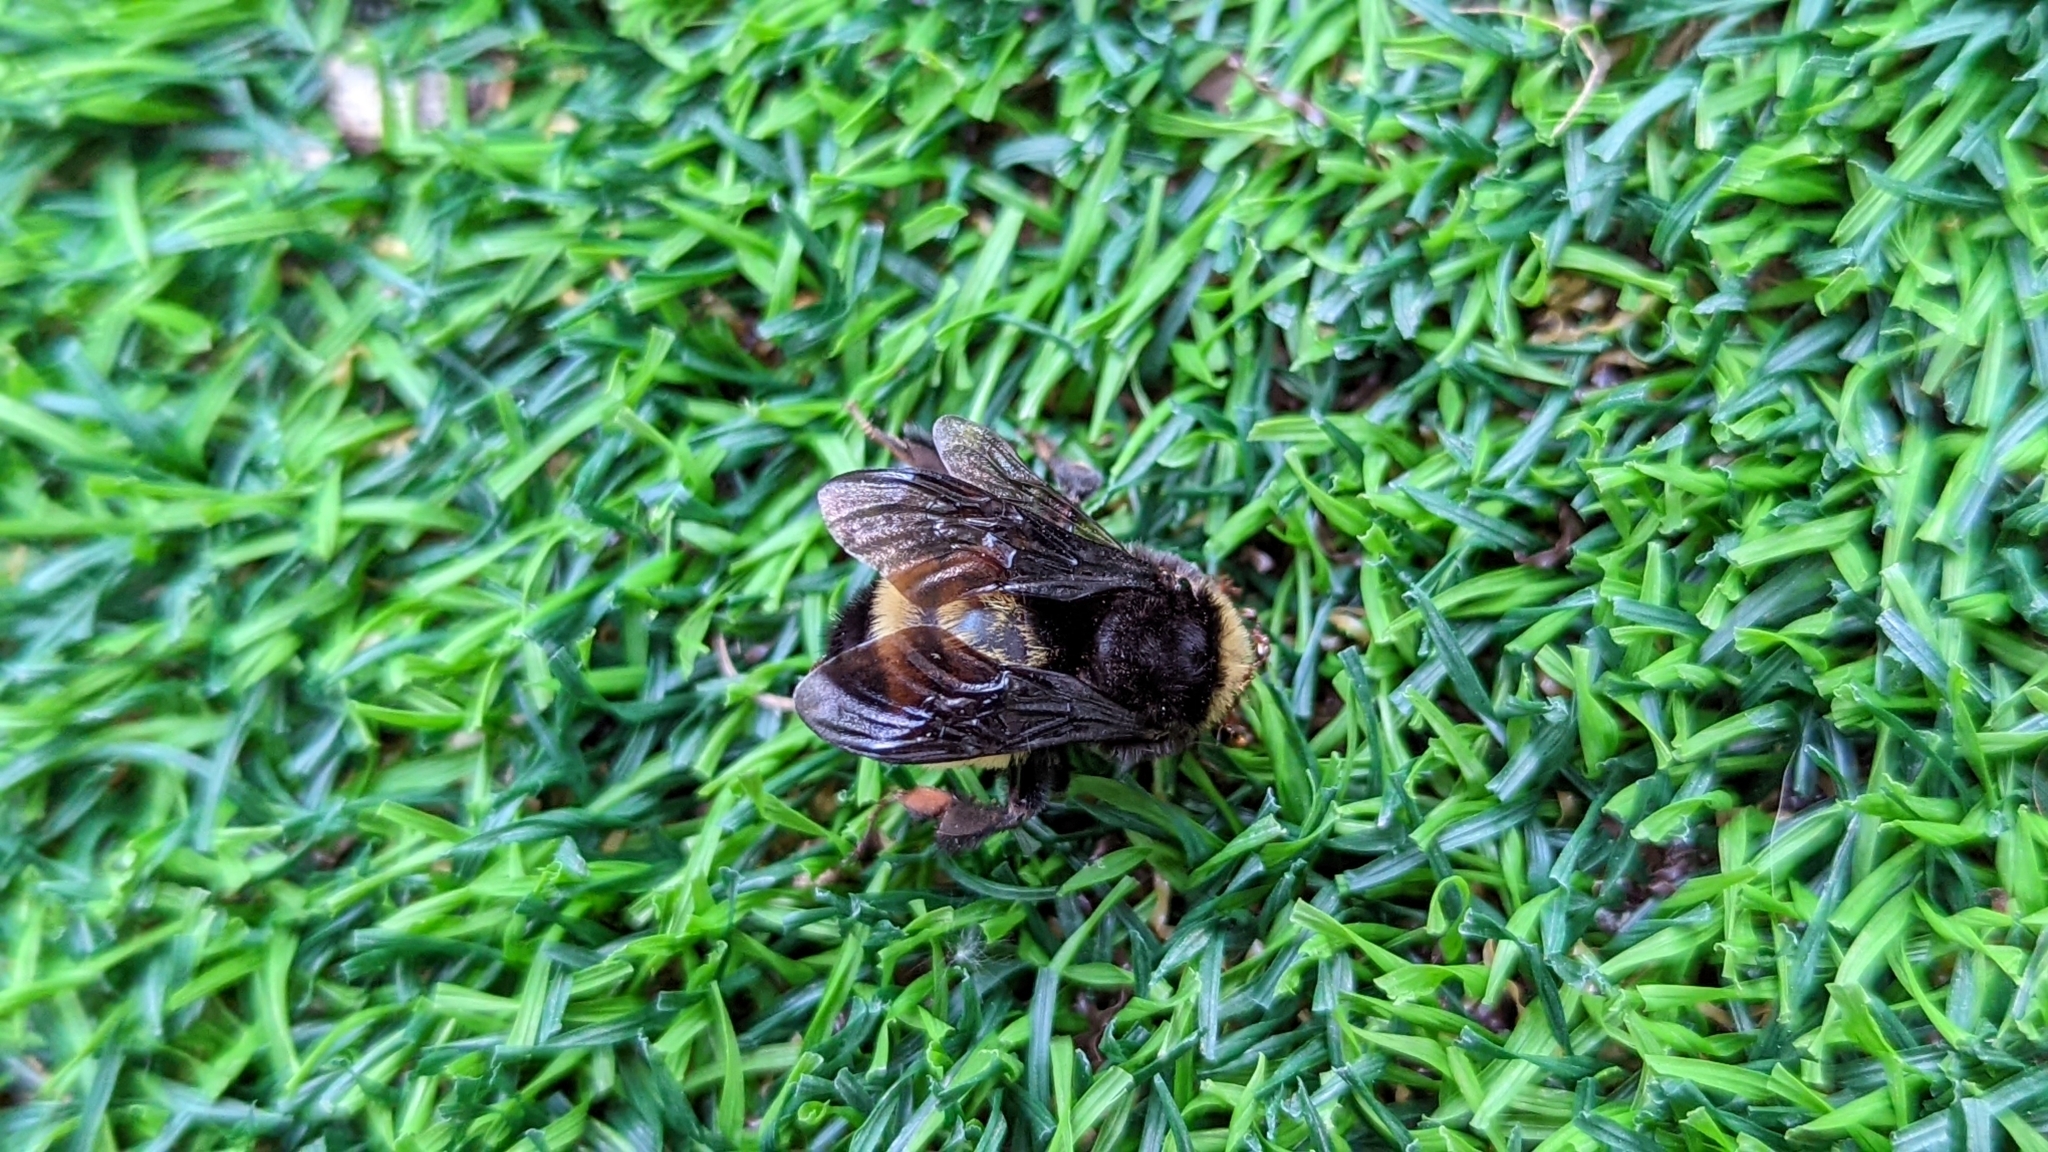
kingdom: Animalia
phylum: Arthropoda
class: Insecta
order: Hymenoptera
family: Apidae
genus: Bombus
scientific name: Bombus pensylvanicus
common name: Bumble bee
